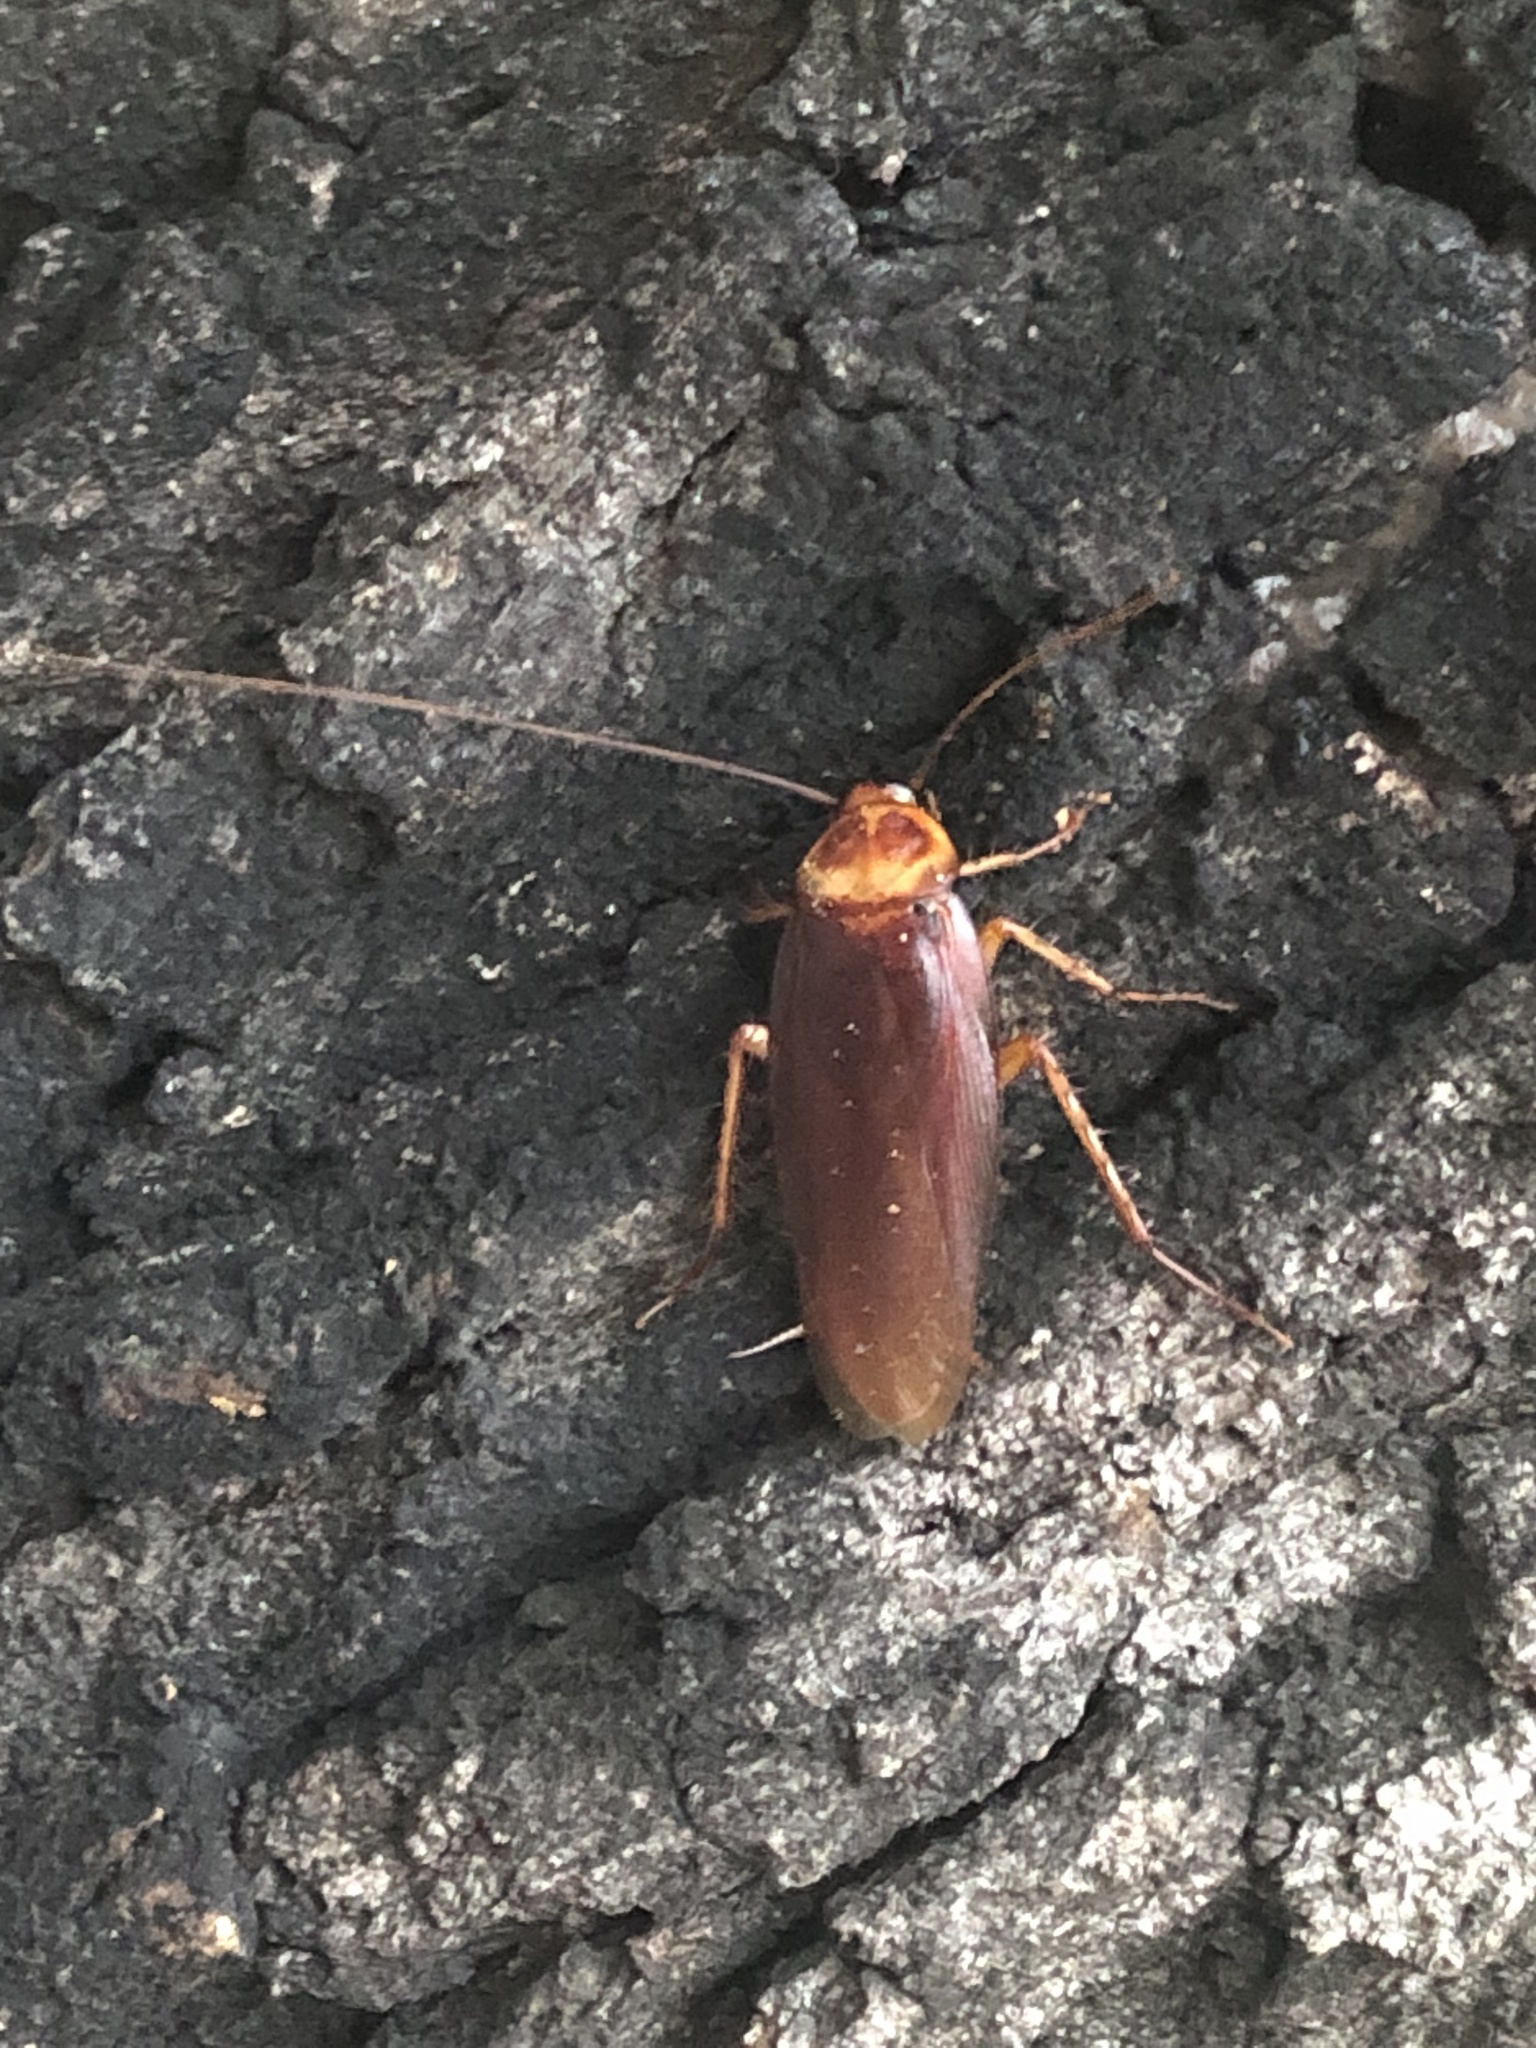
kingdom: Animalia
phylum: Arthropoda
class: Insecta
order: Blattodea
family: Blattidae
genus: Periplaneta
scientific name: Periplaneta americana
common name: American cockroach
